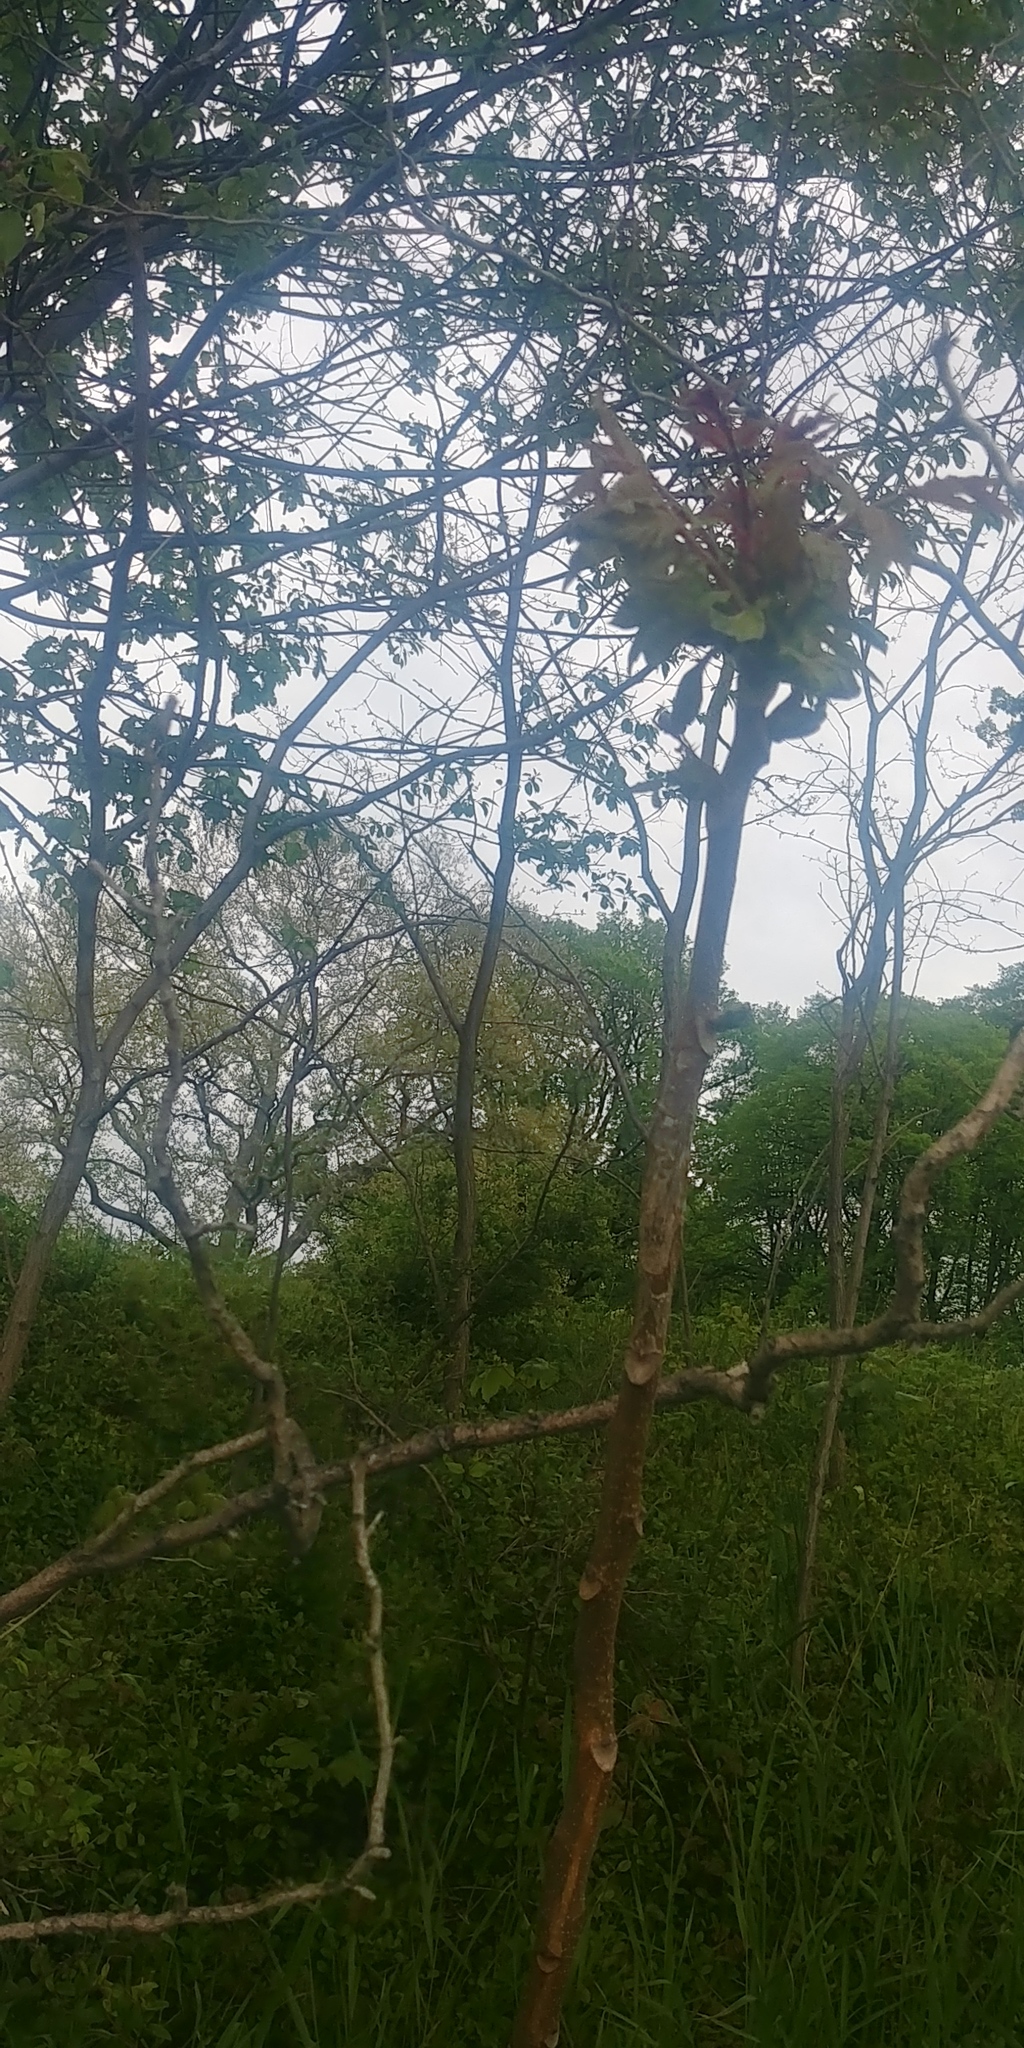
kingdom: Plantae
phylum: Tracheophyta
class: Magnoliopsida
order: Sapindales
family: Simaroubaceae
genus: Ailanthus
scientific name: Ailanthus altissima
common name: Tree-of-heaven
